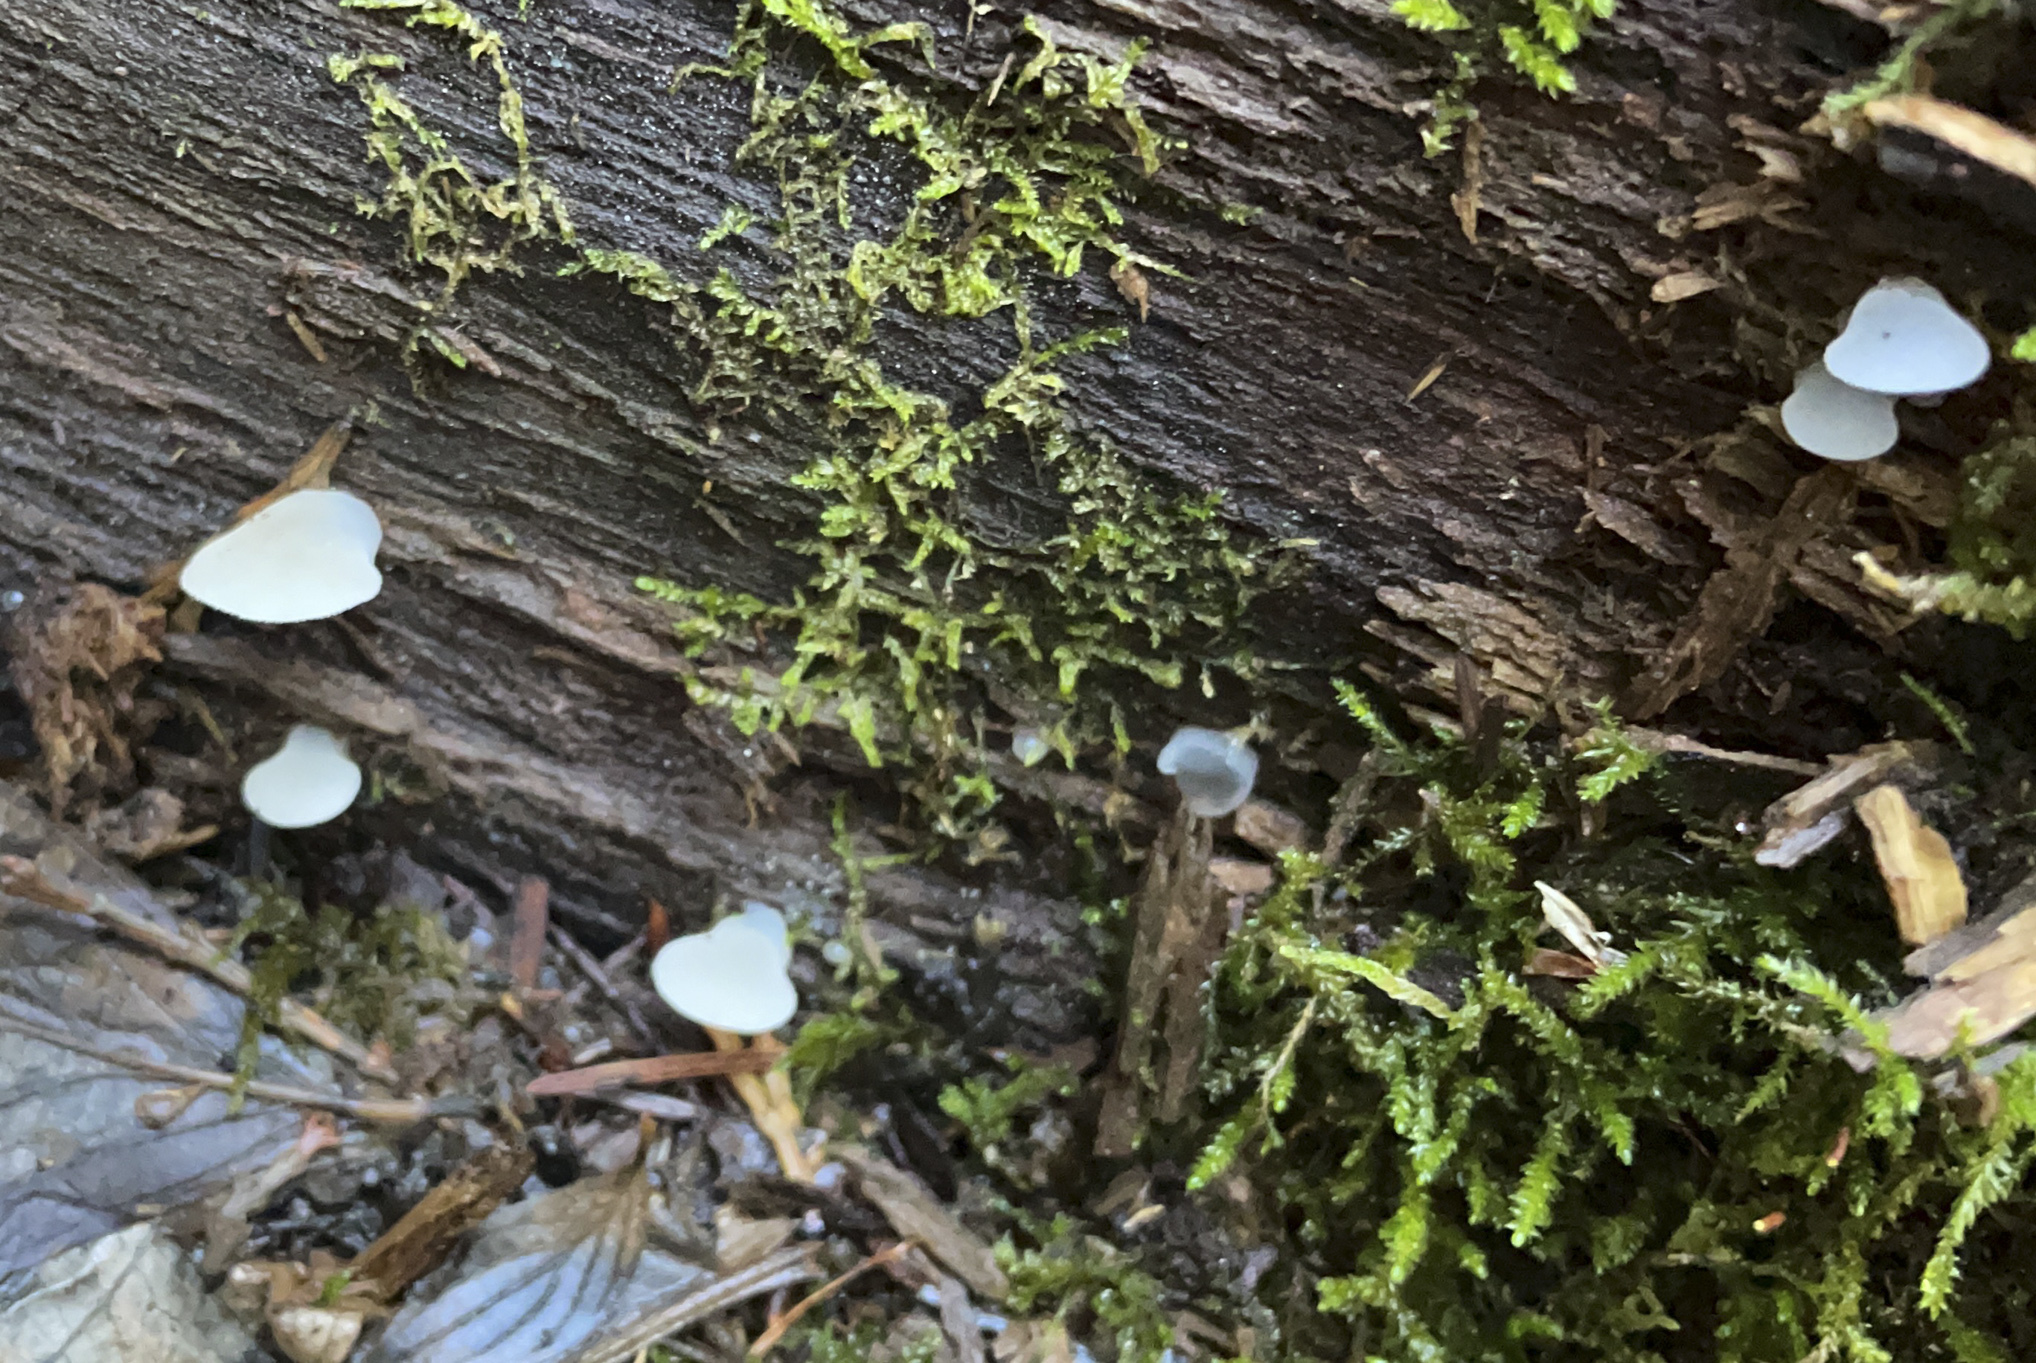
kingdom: Fungi
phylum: Basidiomycota
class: Agaricomycetes
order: Auriculariales
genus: Pseudohydnum
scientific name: Pseudohydnum gelatinosum
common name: Jelly tongue
